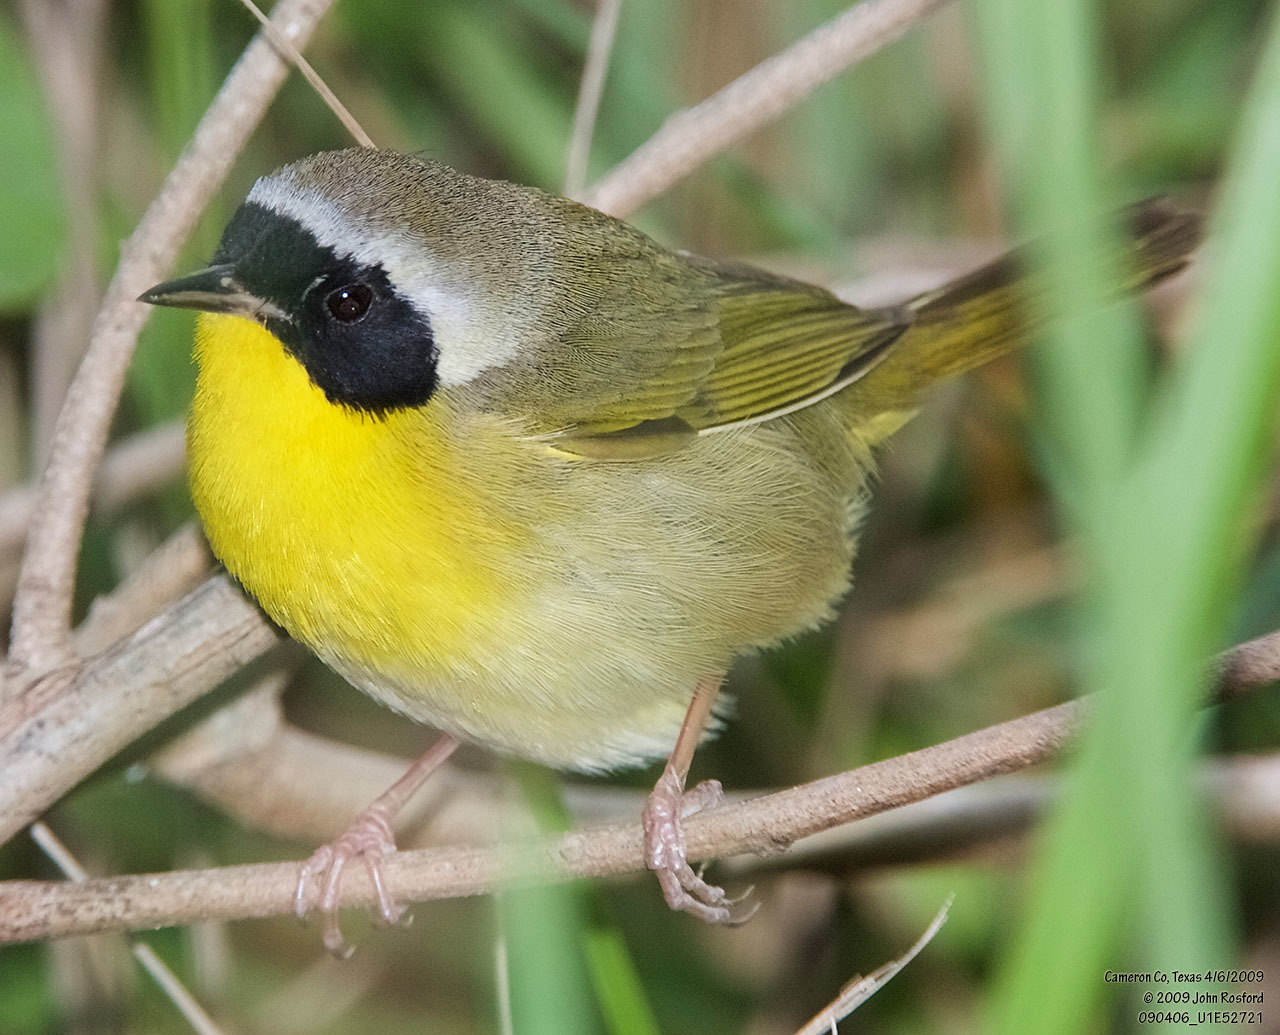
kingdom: Animalia
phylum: Chordata
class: Aves
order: Passeriformes
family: Parulidae
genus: Geothlypis
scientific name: Geothlypis trichas
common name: Common yellowthroat
